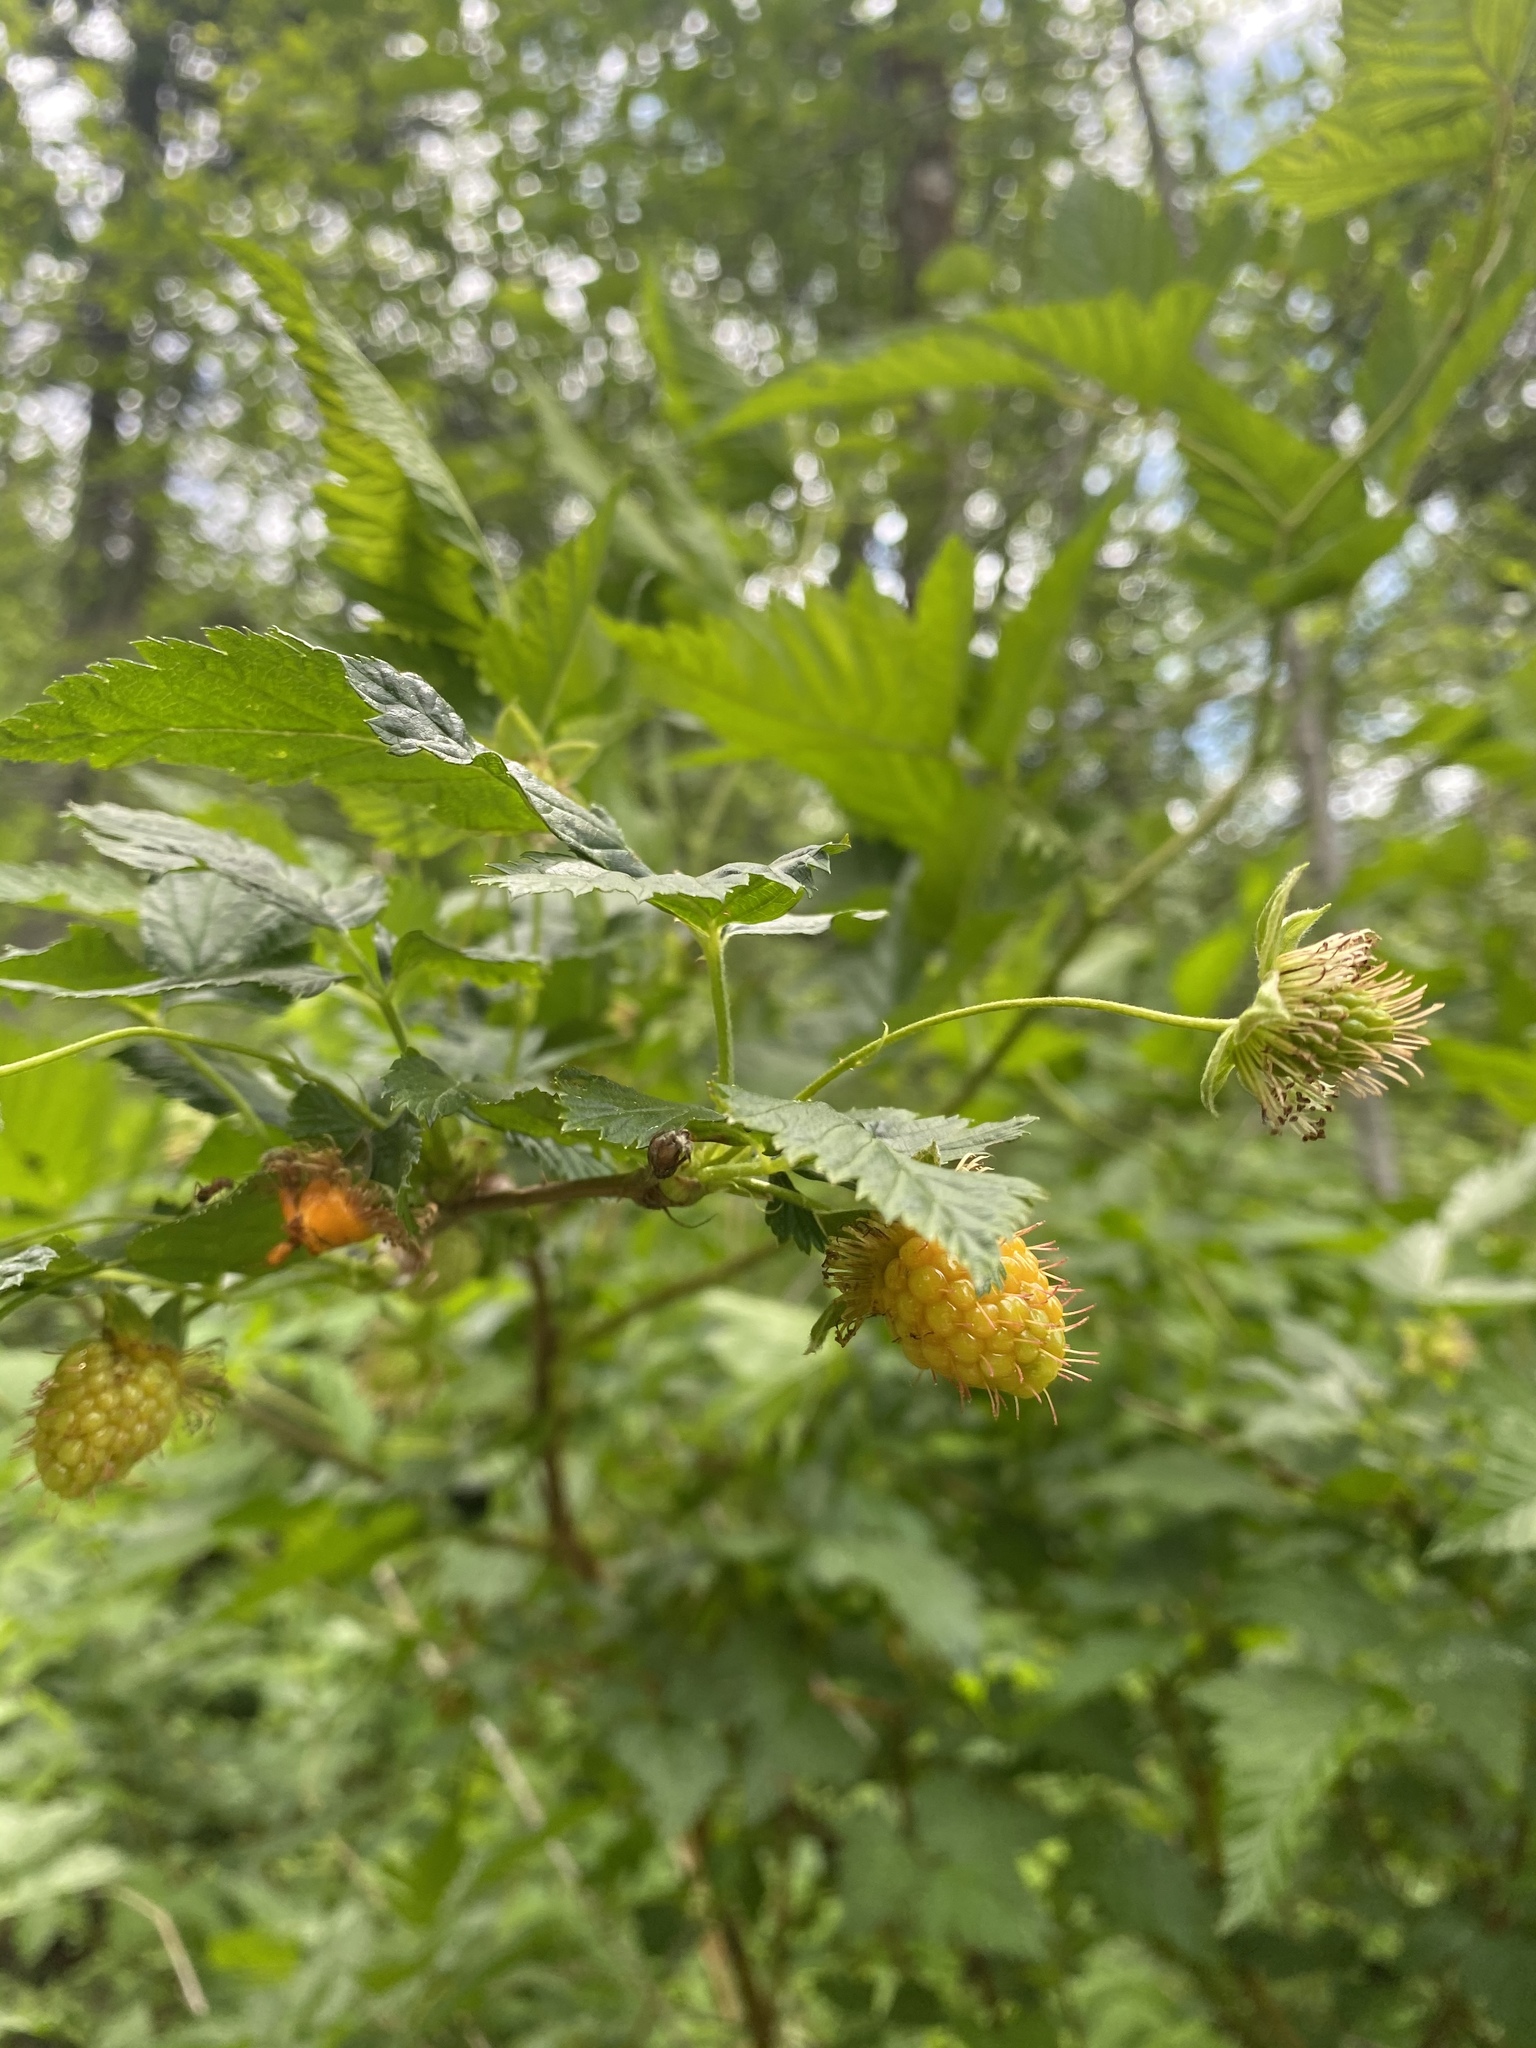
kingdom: Plantae
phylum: Tracheophyta
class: Magnoliopsida
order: Rosales
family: Rosaceae
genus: Rubus
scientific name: Rubus spectabilis
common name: Salmonberry
